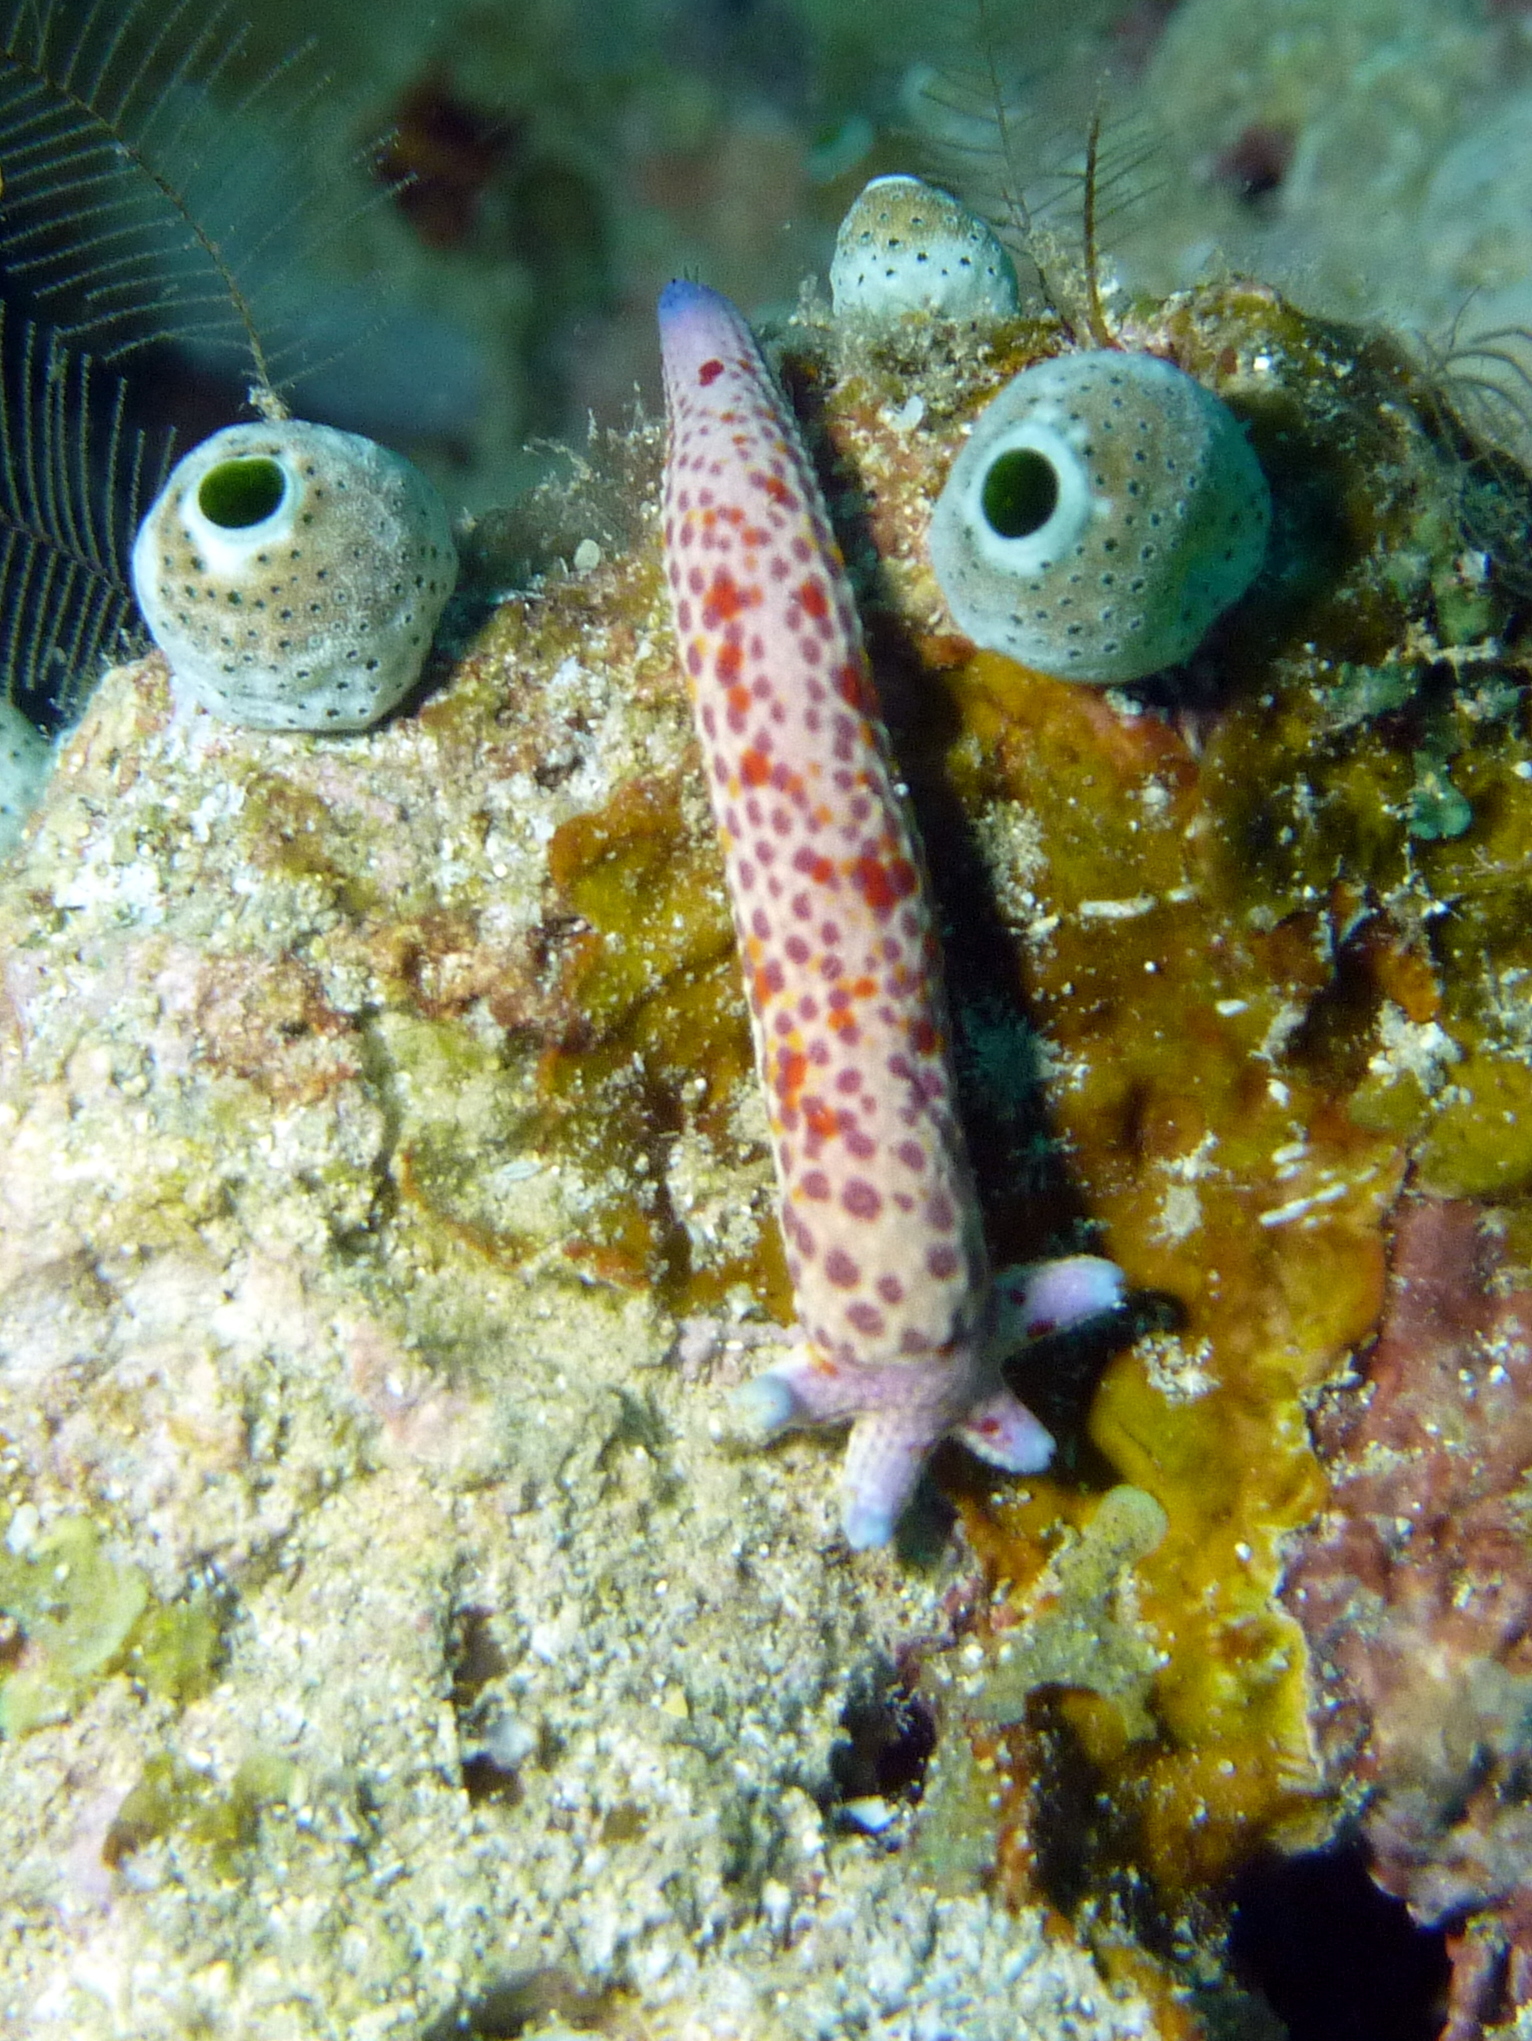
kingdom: Animalia
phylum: Echinodermata
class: Asteroidea
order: Valvatida
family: Ophidiasteridae
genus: Linckia
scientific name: Linckia multifora
